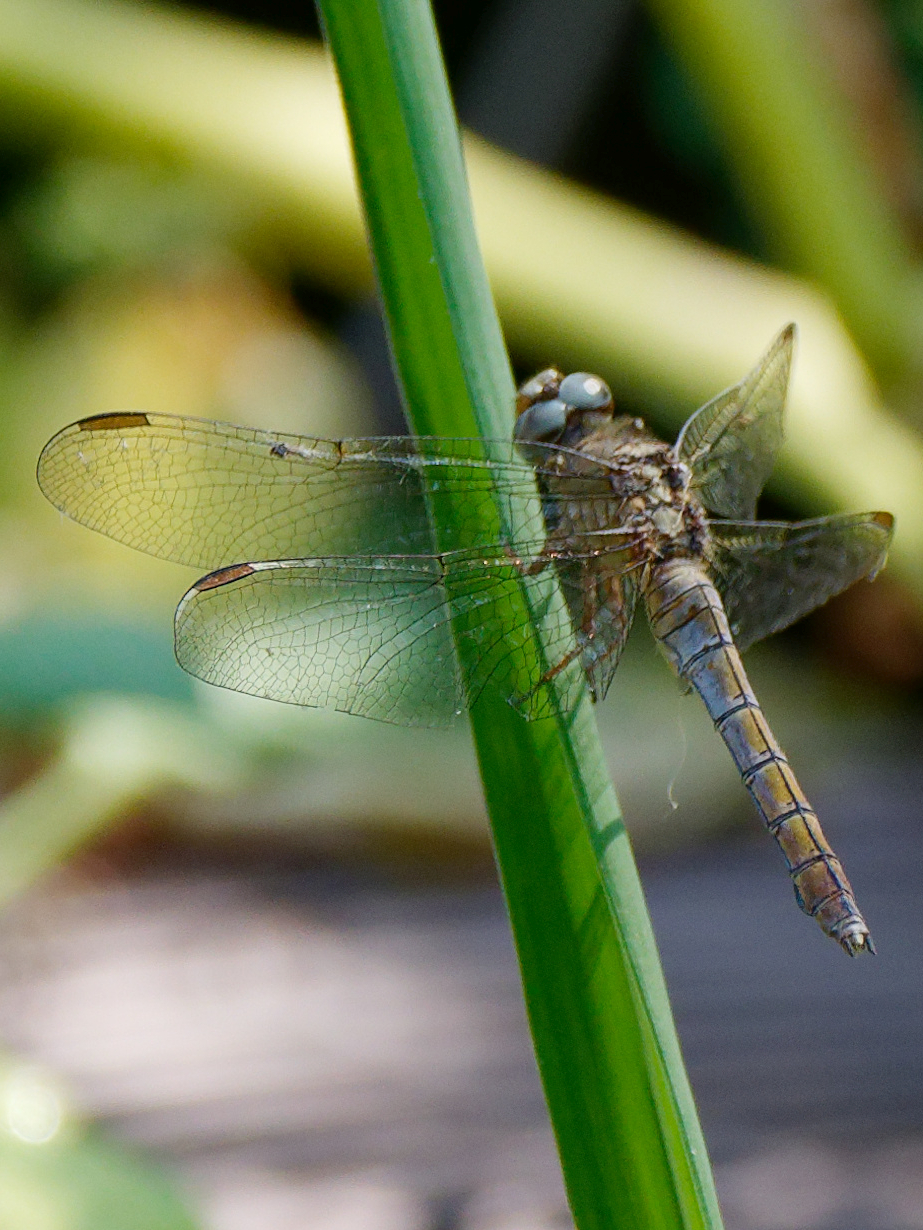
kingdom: Animalia
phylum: Arthropoda
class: Insecta
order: Odonata
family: Libellulidae
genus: Orthetrum
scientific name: Orthetrum coerulescens
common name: Keeled skimmer
